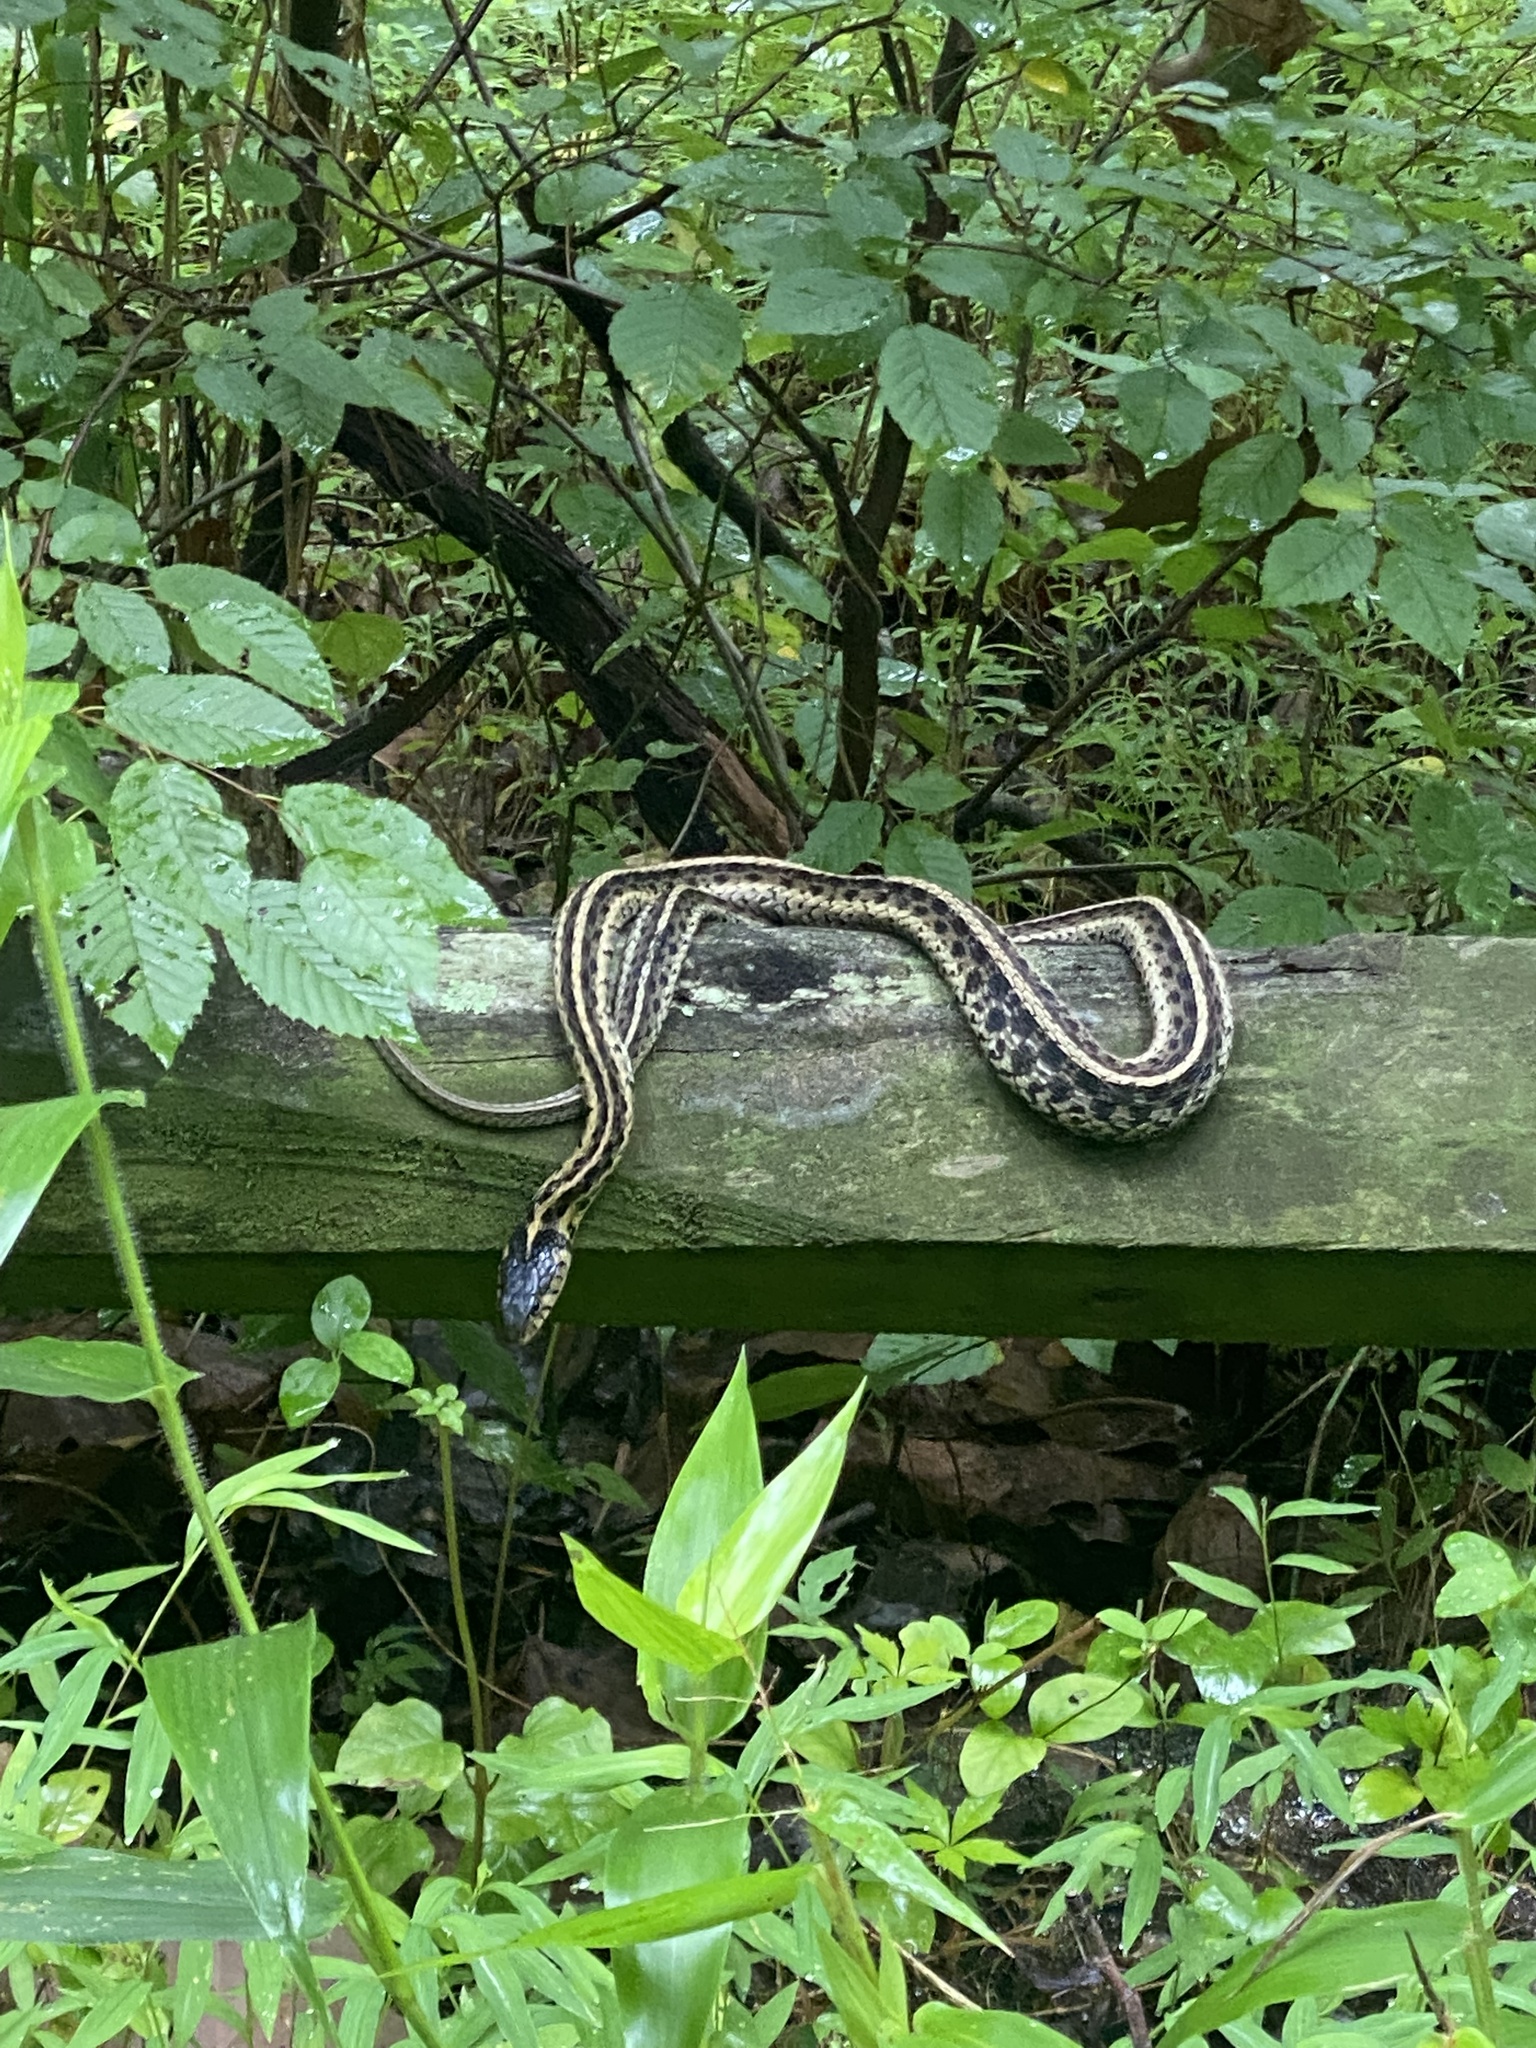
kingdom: Animalia
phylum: Chordata
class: Squamata
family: Colubridae
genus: Thamnophis
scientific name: Thamnophis sirtalis
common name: Common garter snake
